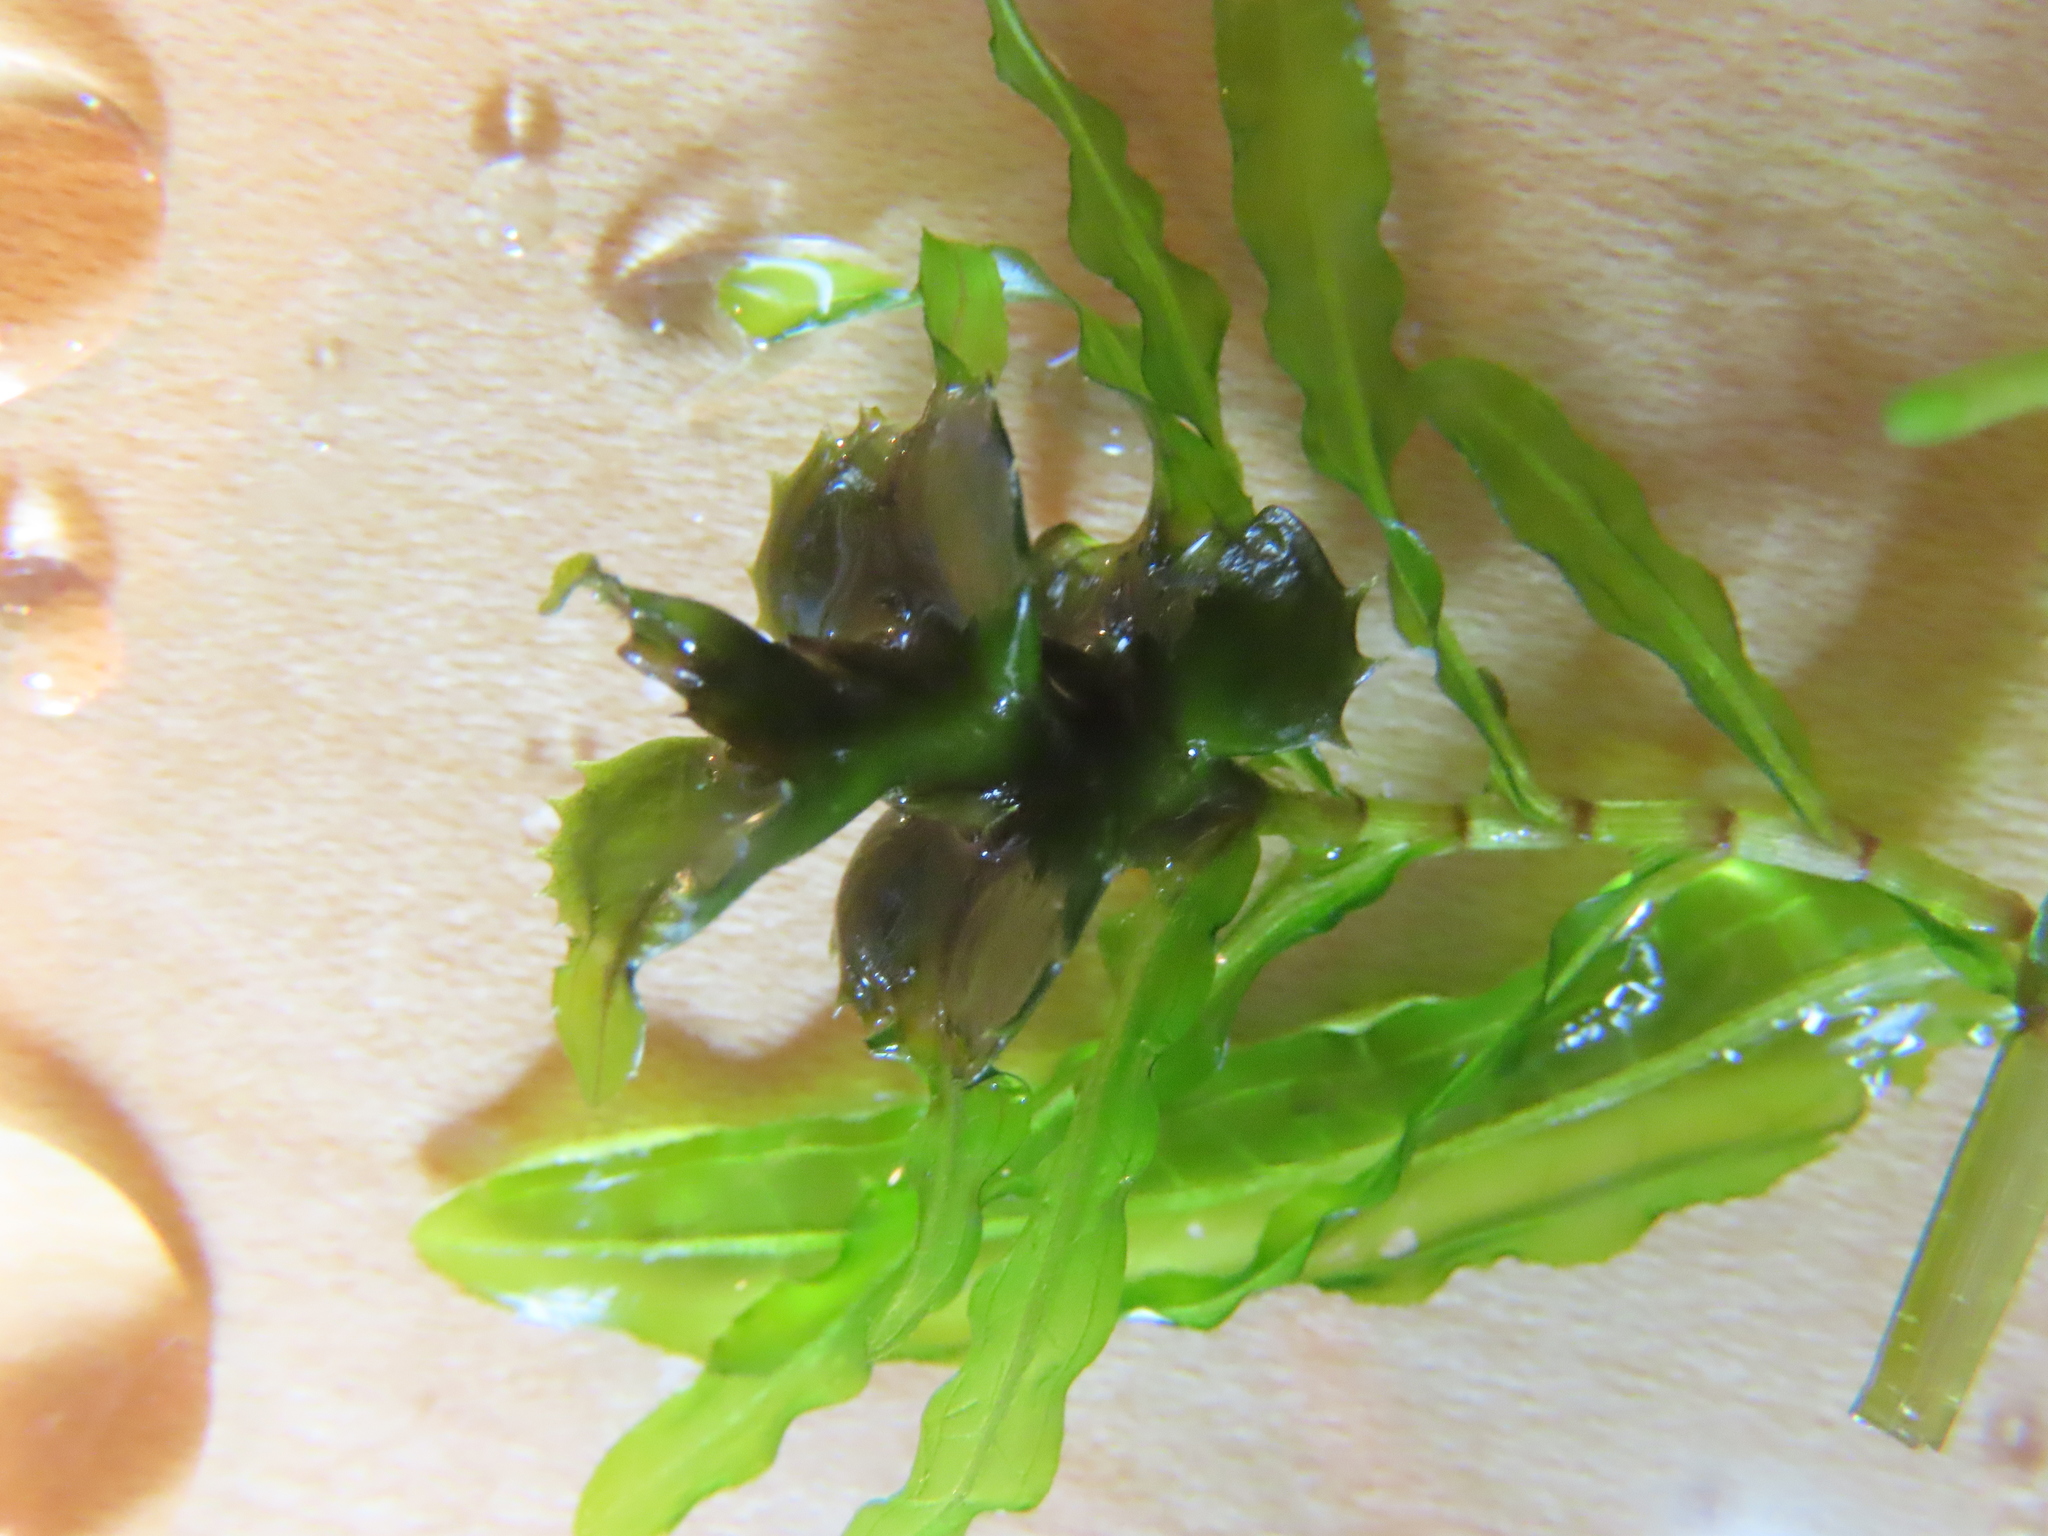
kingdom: Plantae
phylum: Tracheophyta
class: Liliopsida
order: Alismatales
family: Potamogetonaceae
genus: Potamogeton
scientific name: Potamogeton crispus
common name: Curled pondweed
